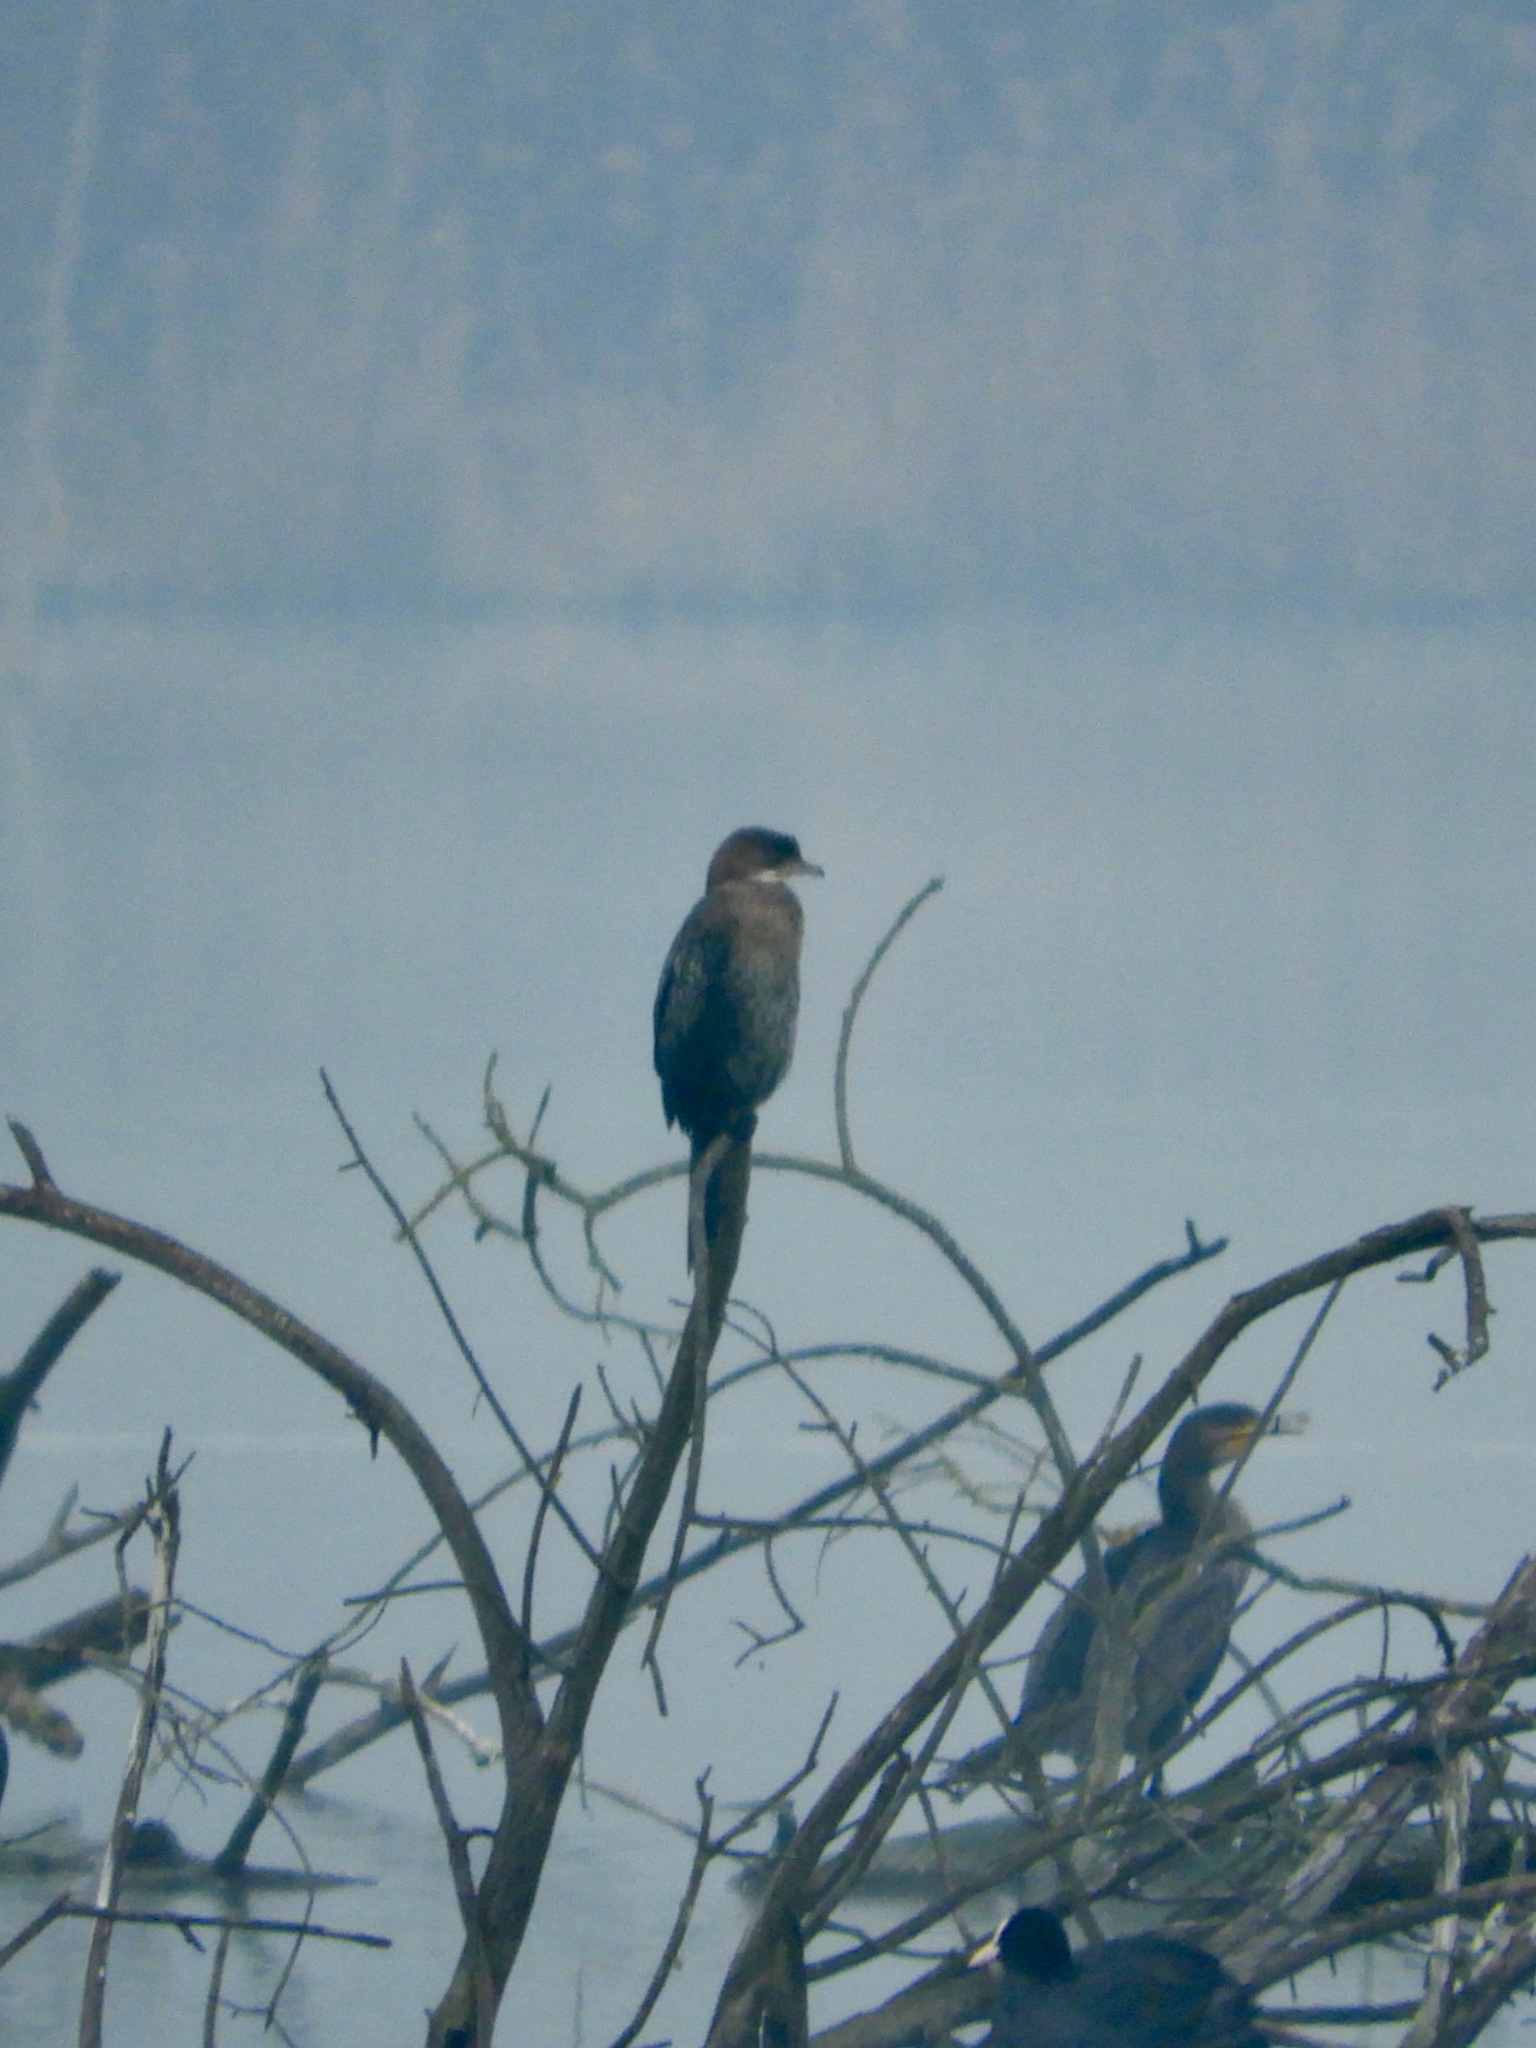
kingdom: Animalia
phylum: Chordata
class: Aves
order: Suliformes
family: Phalacrocoracidae
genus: Microcarbo
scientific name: Microcarbo pygmaeus
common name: Pygmy cormorant
